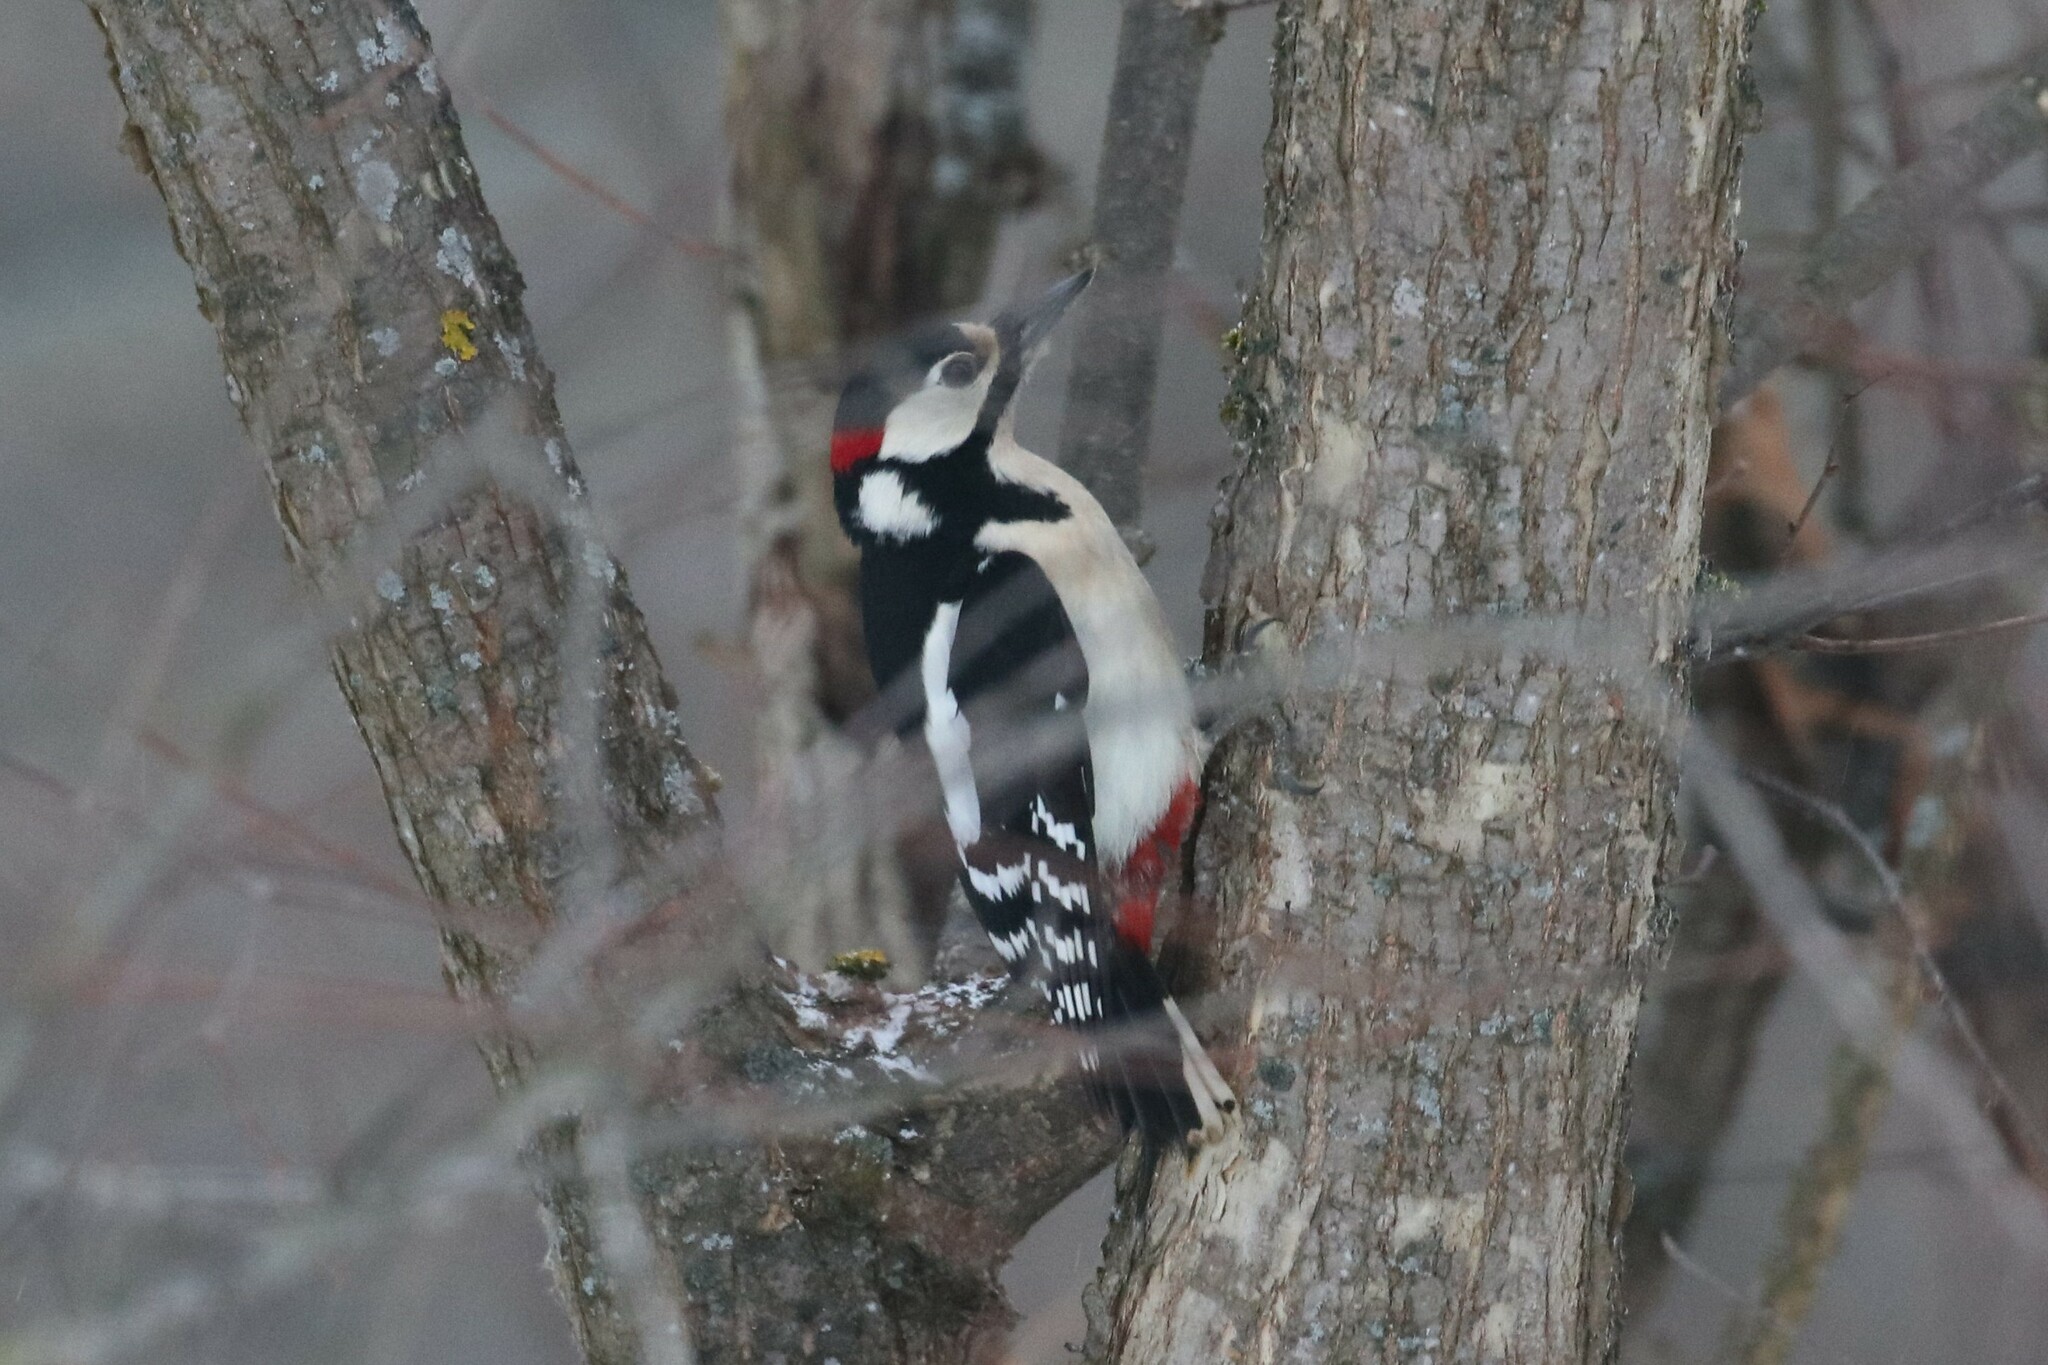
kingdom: Animalia
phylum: Chordata
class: Aves
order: Piciformes
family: Picidae
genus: Dendrocopos
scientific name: Dendrocopos major
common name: Great spotted woodpecker
